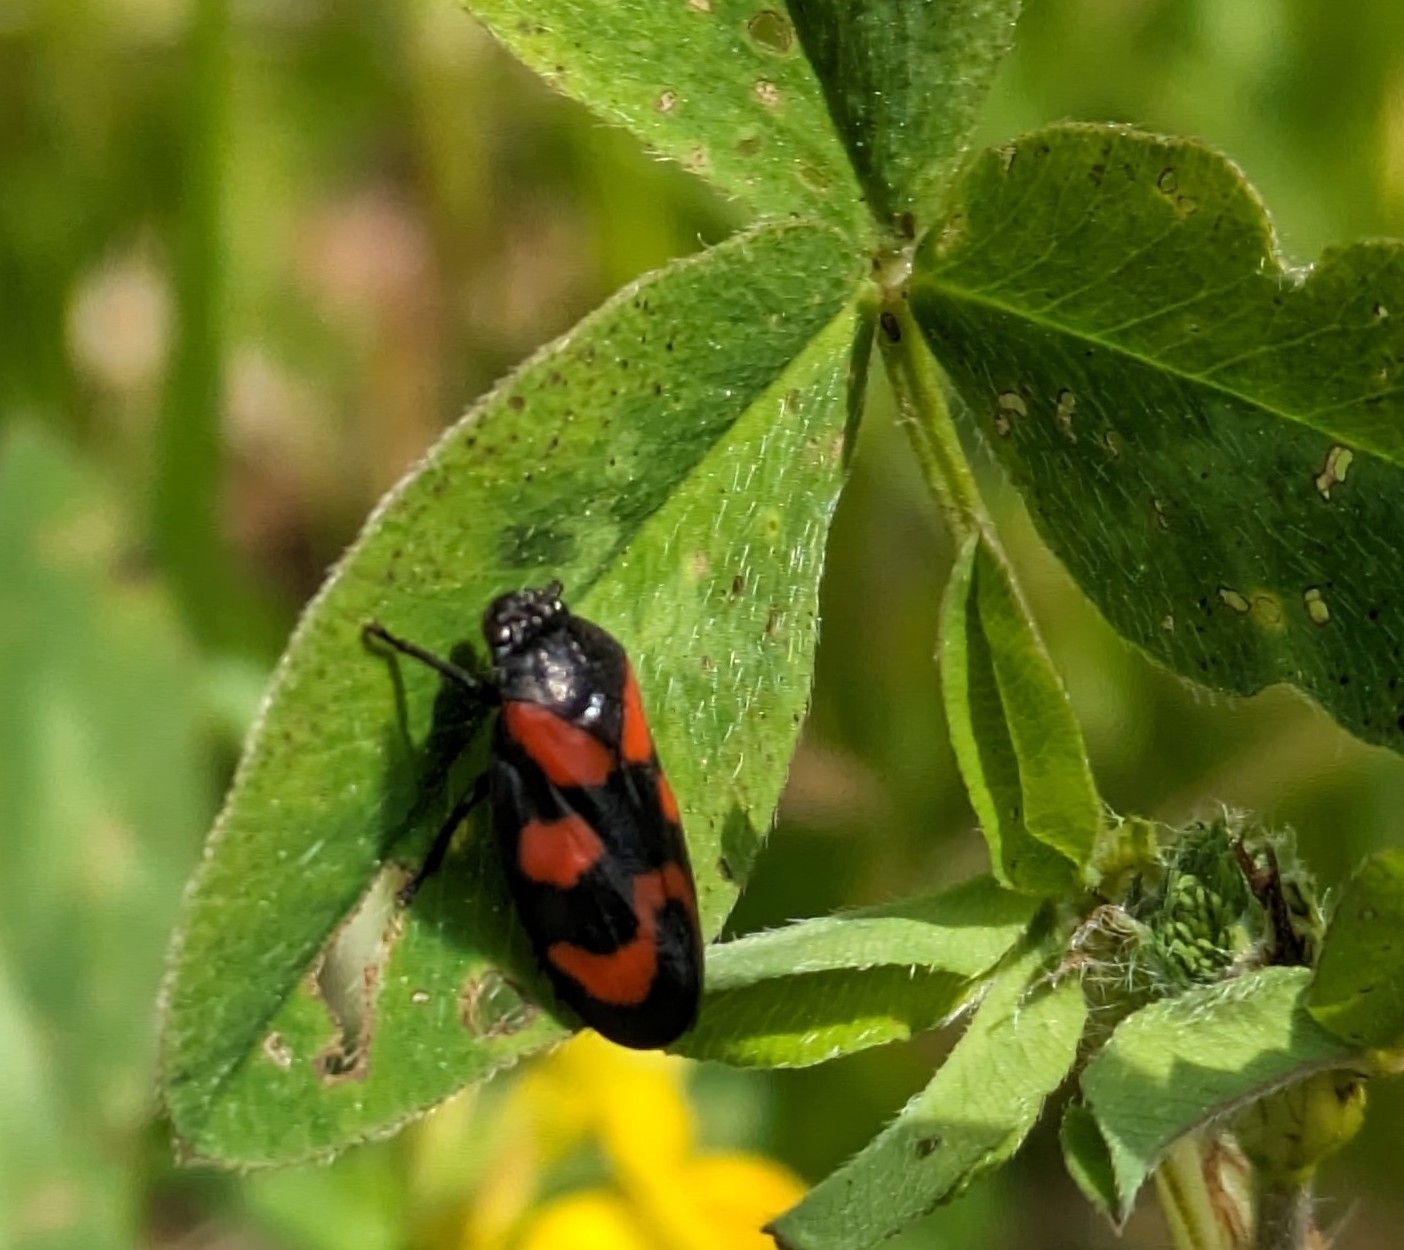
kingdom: Animalia
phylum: Arthropoda
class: Insecta
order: Hemiptera
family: Cercopidae
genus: Cercopis
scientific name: Cercopis vulnerata
